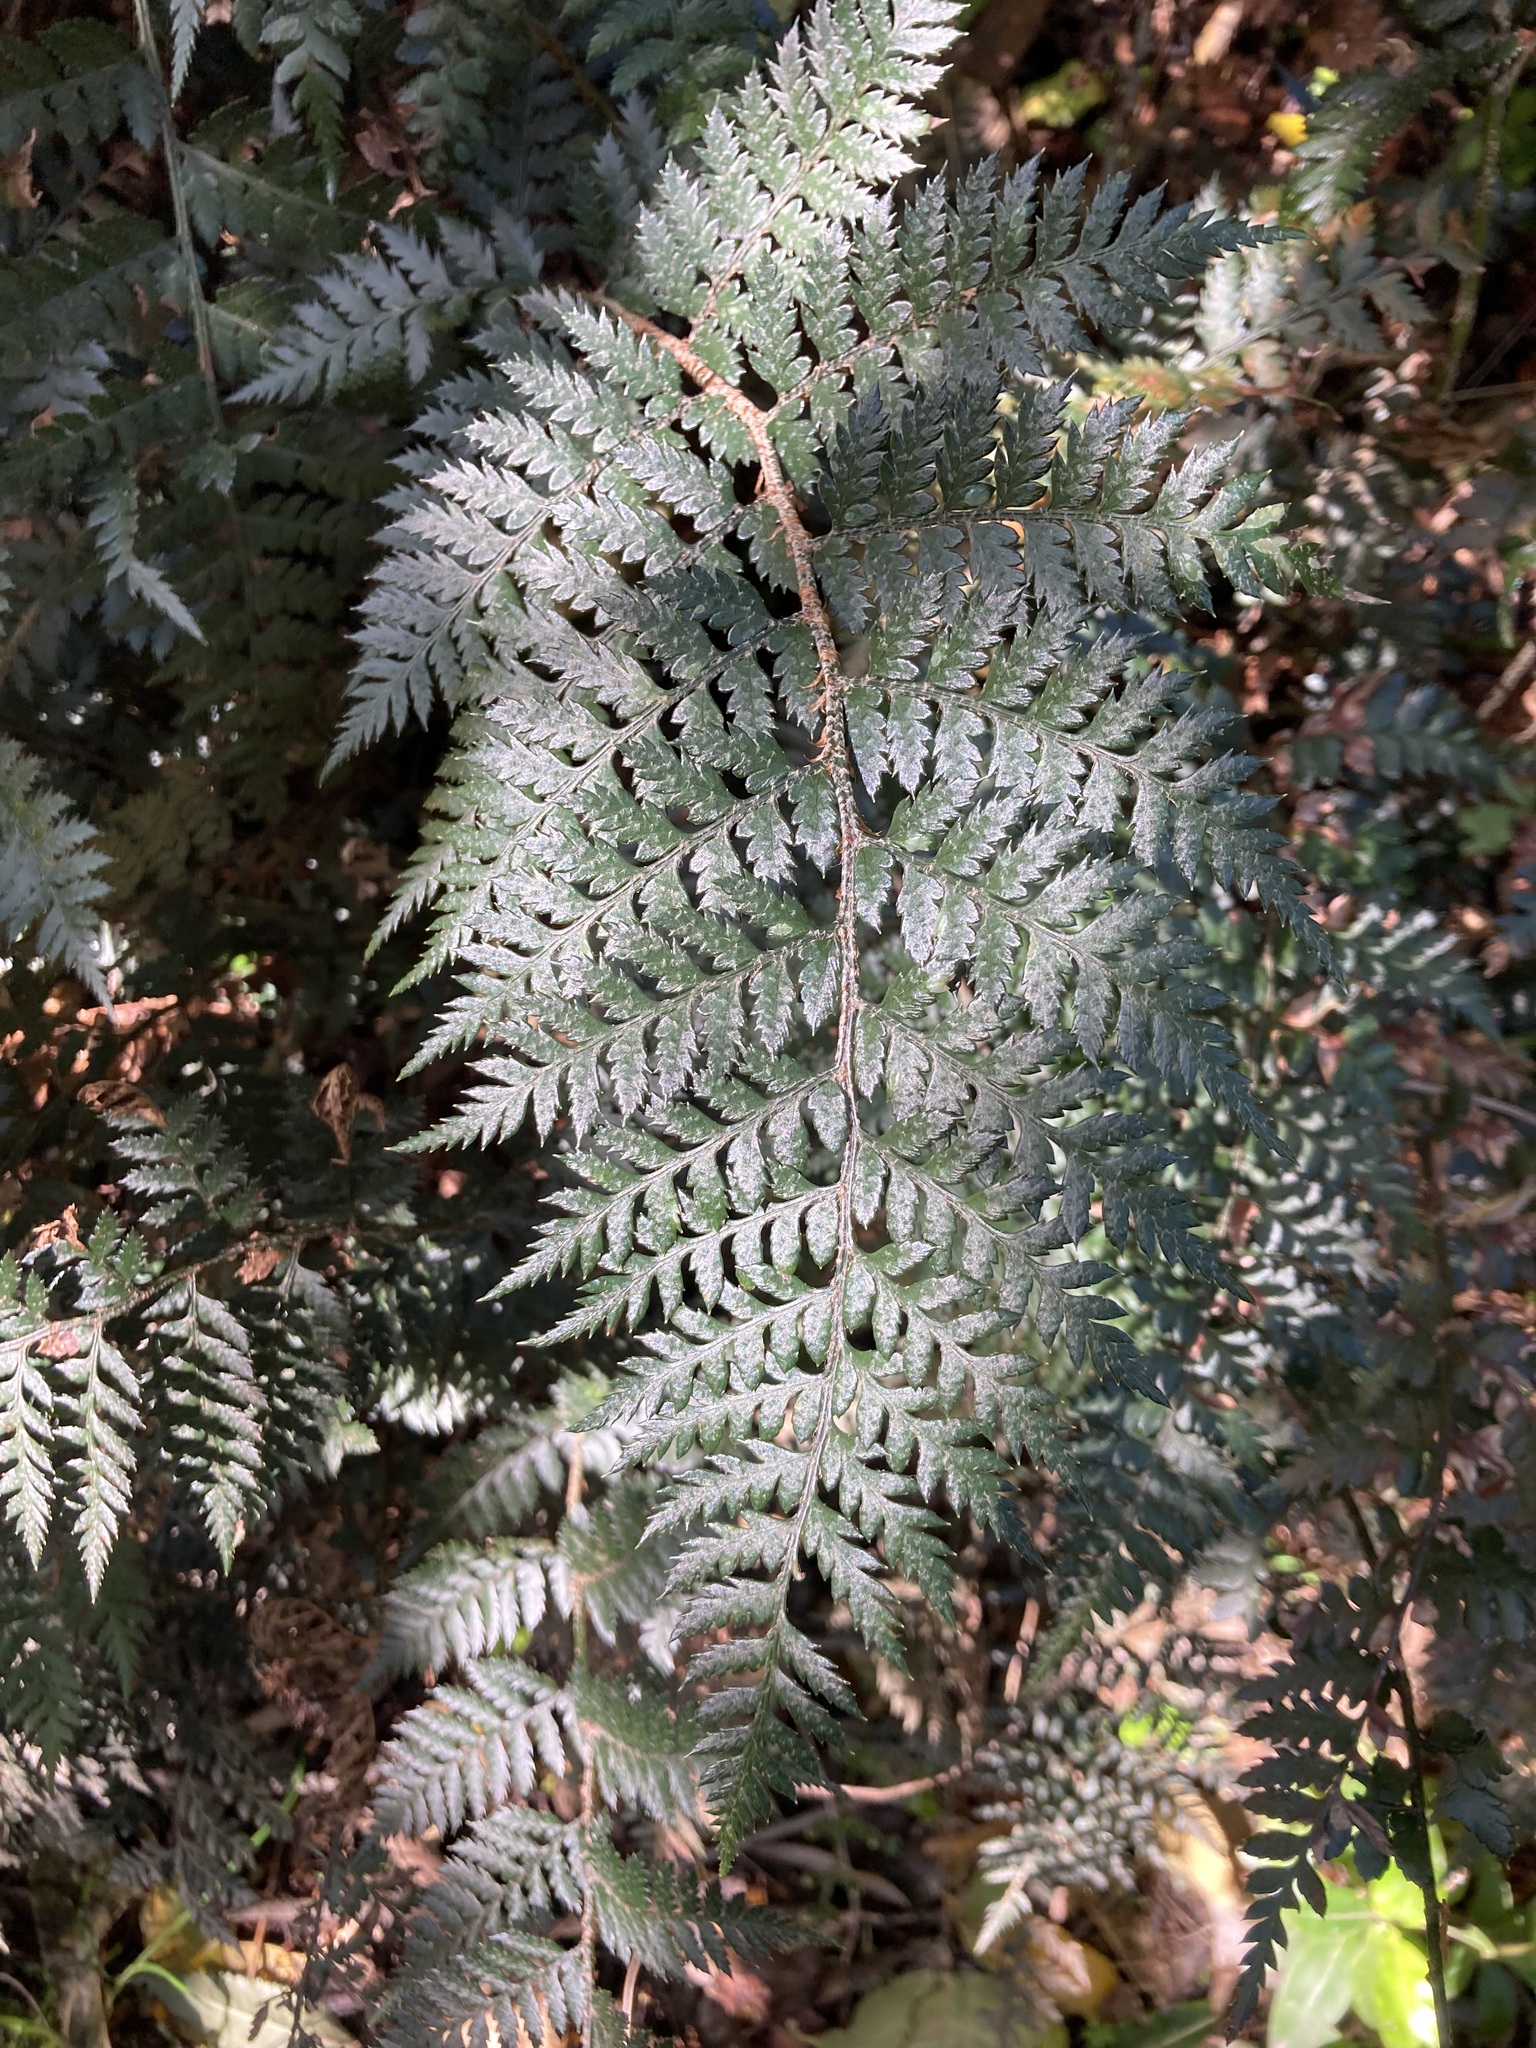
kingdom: Plantae
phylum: Tracheophyta
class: Polypodiopsida
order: Polypodiales
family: Dryopteridaceae
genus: Polystichum
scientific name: Polystichum oculatum
